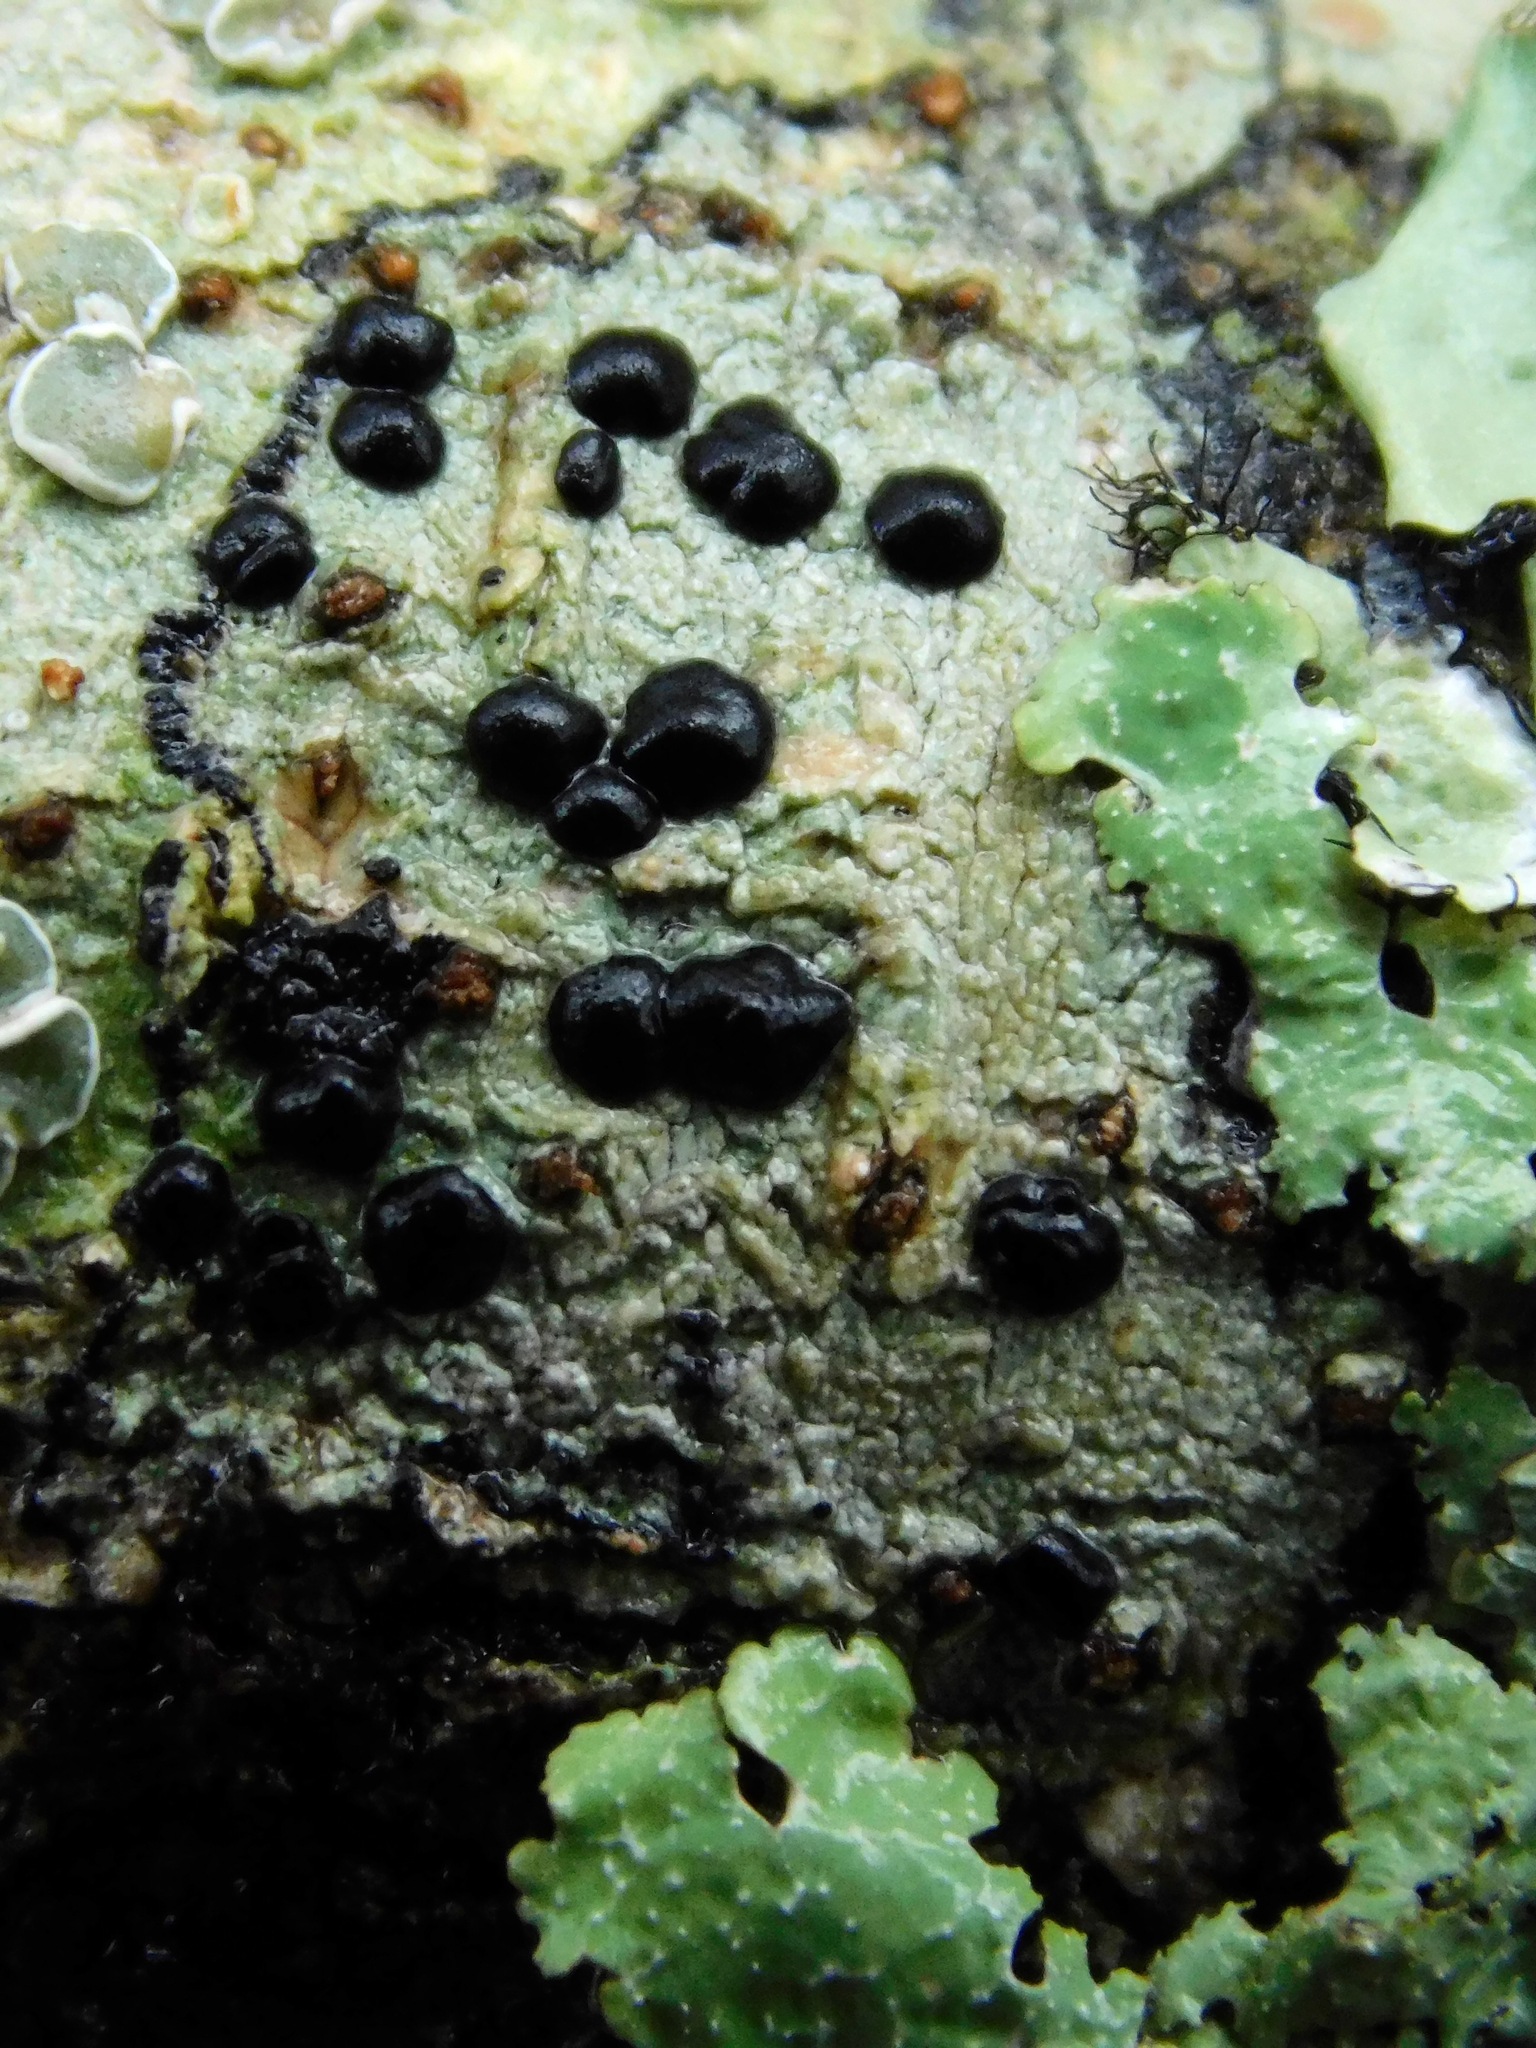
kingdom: Fungi
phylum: Ascomycota
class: Lecanoromycetes
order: Caliciales
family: Caliciaceae
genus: Buellia
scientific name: Buellia erubescens
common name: Common button lichen
